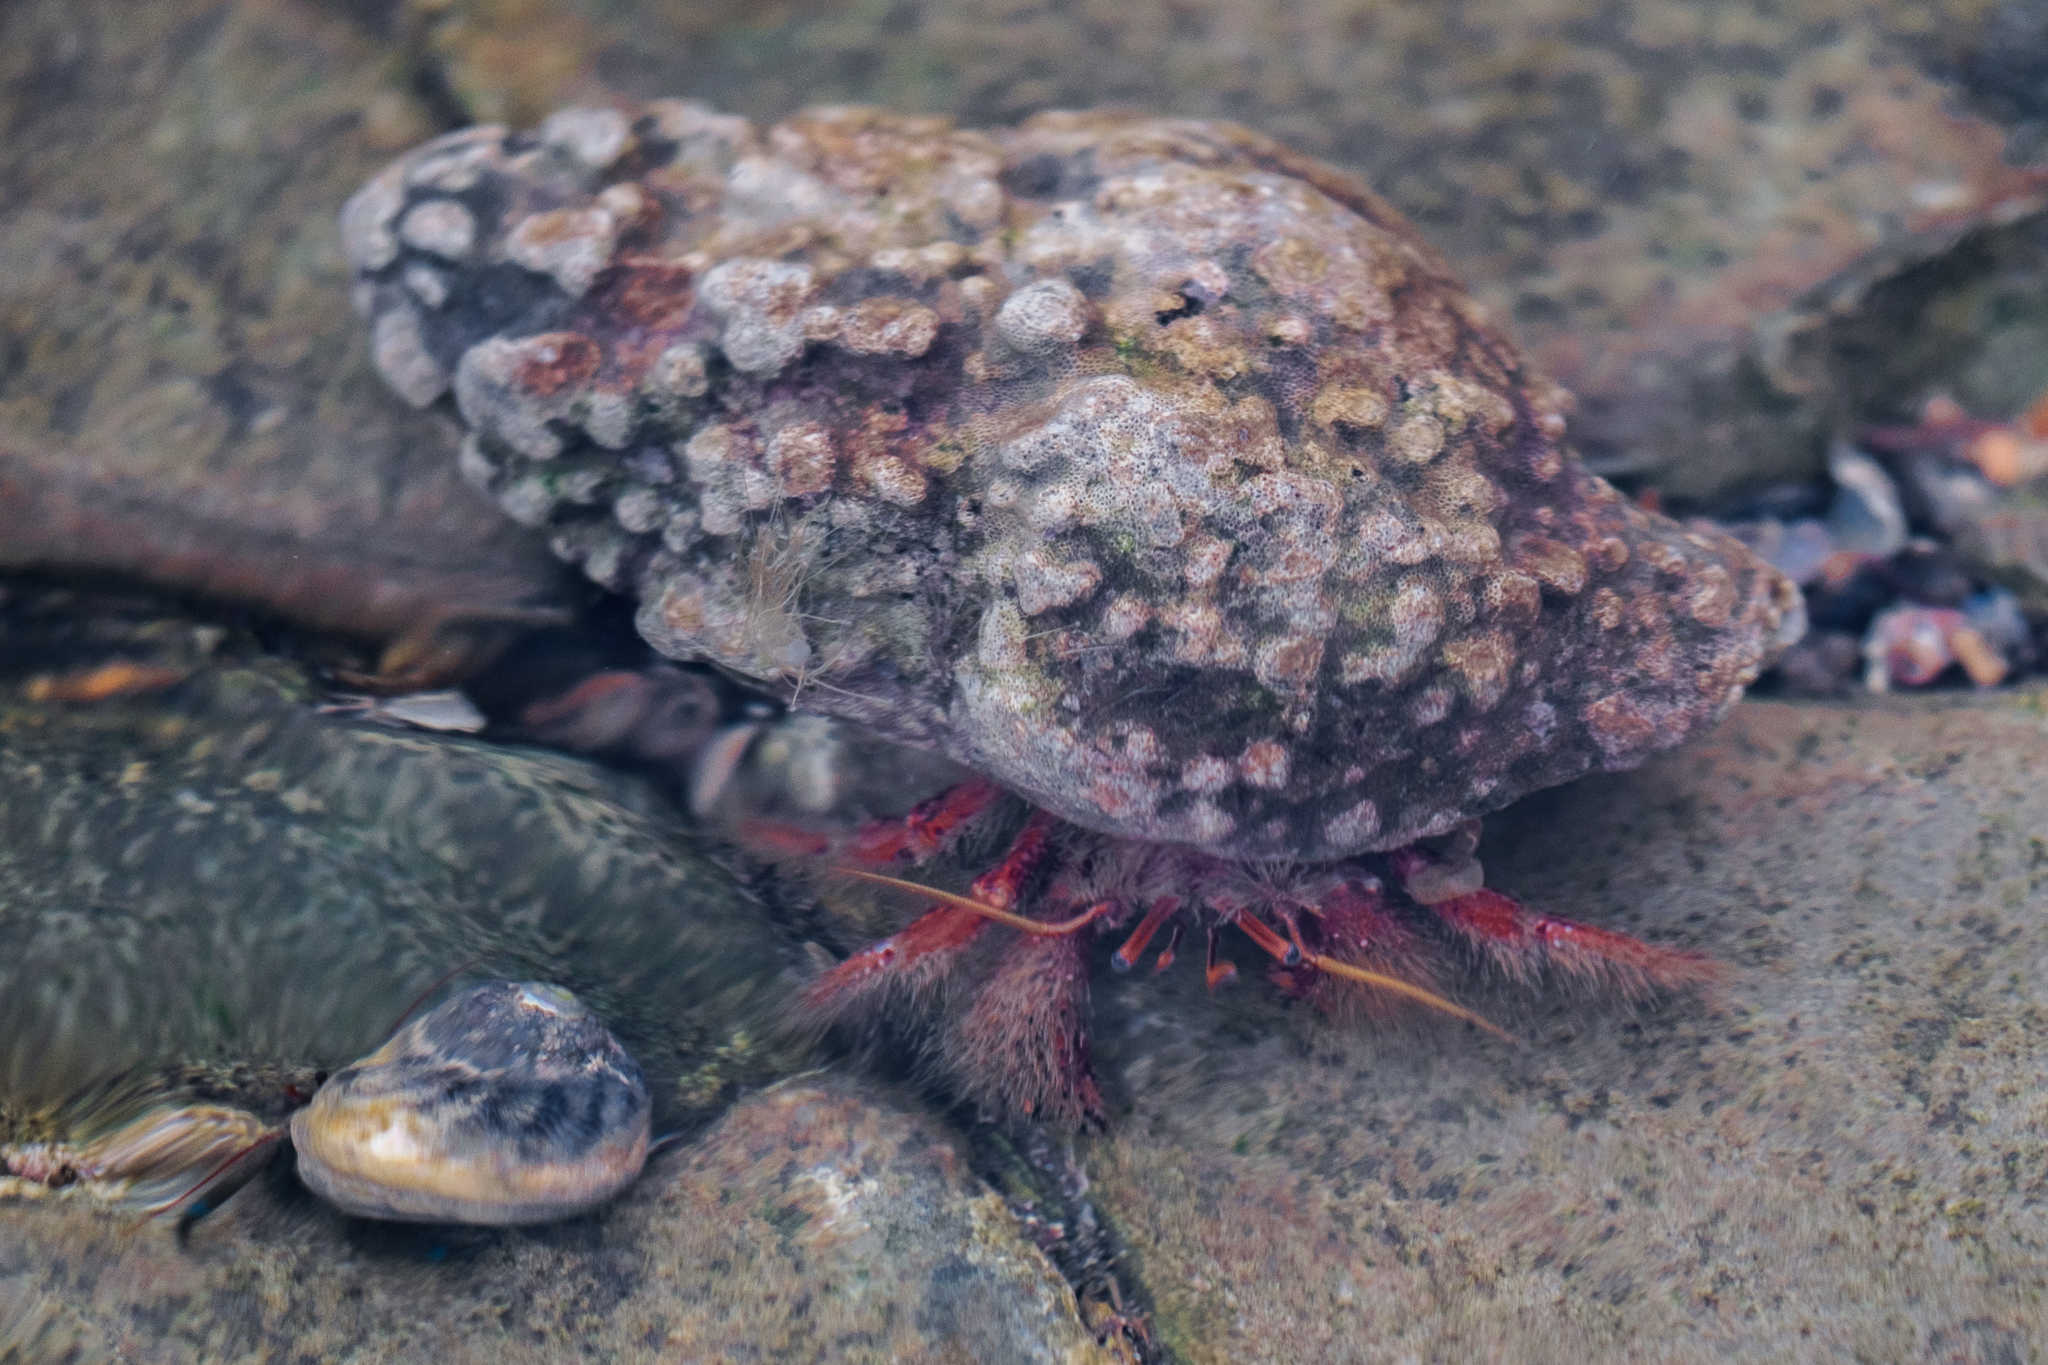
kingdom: Animalia
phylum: Arthropoda
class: Malacostraca
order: Decapoda
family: Diogenidae
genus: Paguristes
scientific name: Paguristes ulreyi
